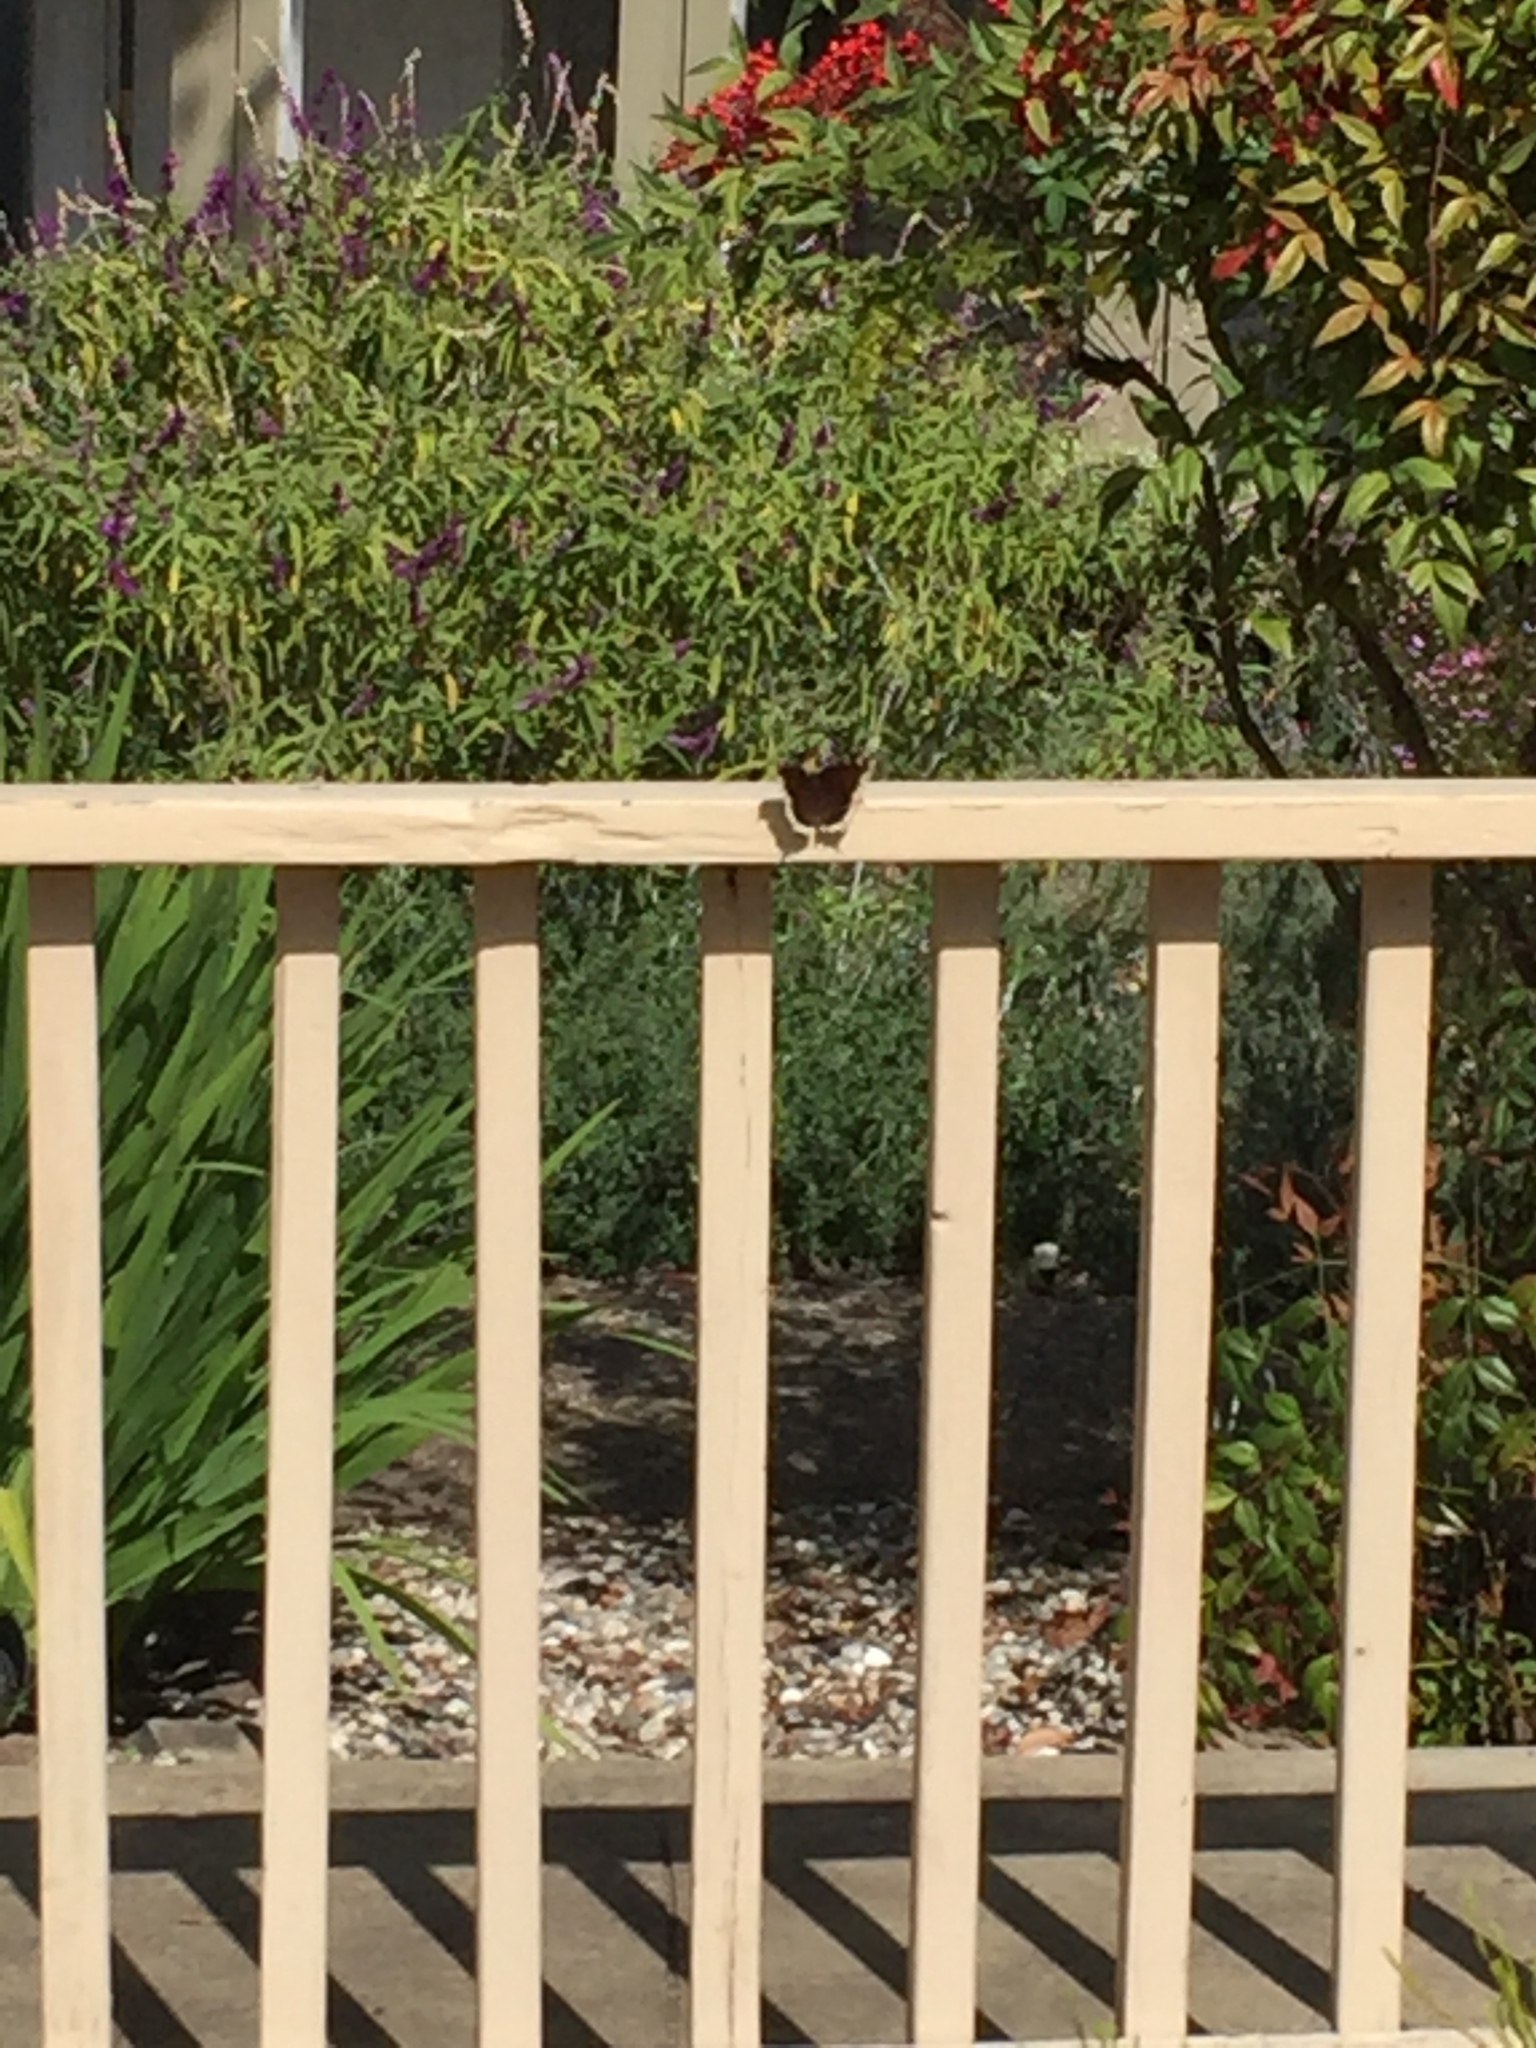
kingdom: Animalia
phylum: Arthropoda
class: Insecta
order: Lepidoptera
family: Nymphalidae
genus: Nymphalis
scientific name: Nymphalis antiopa
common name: Camberwell beauty
